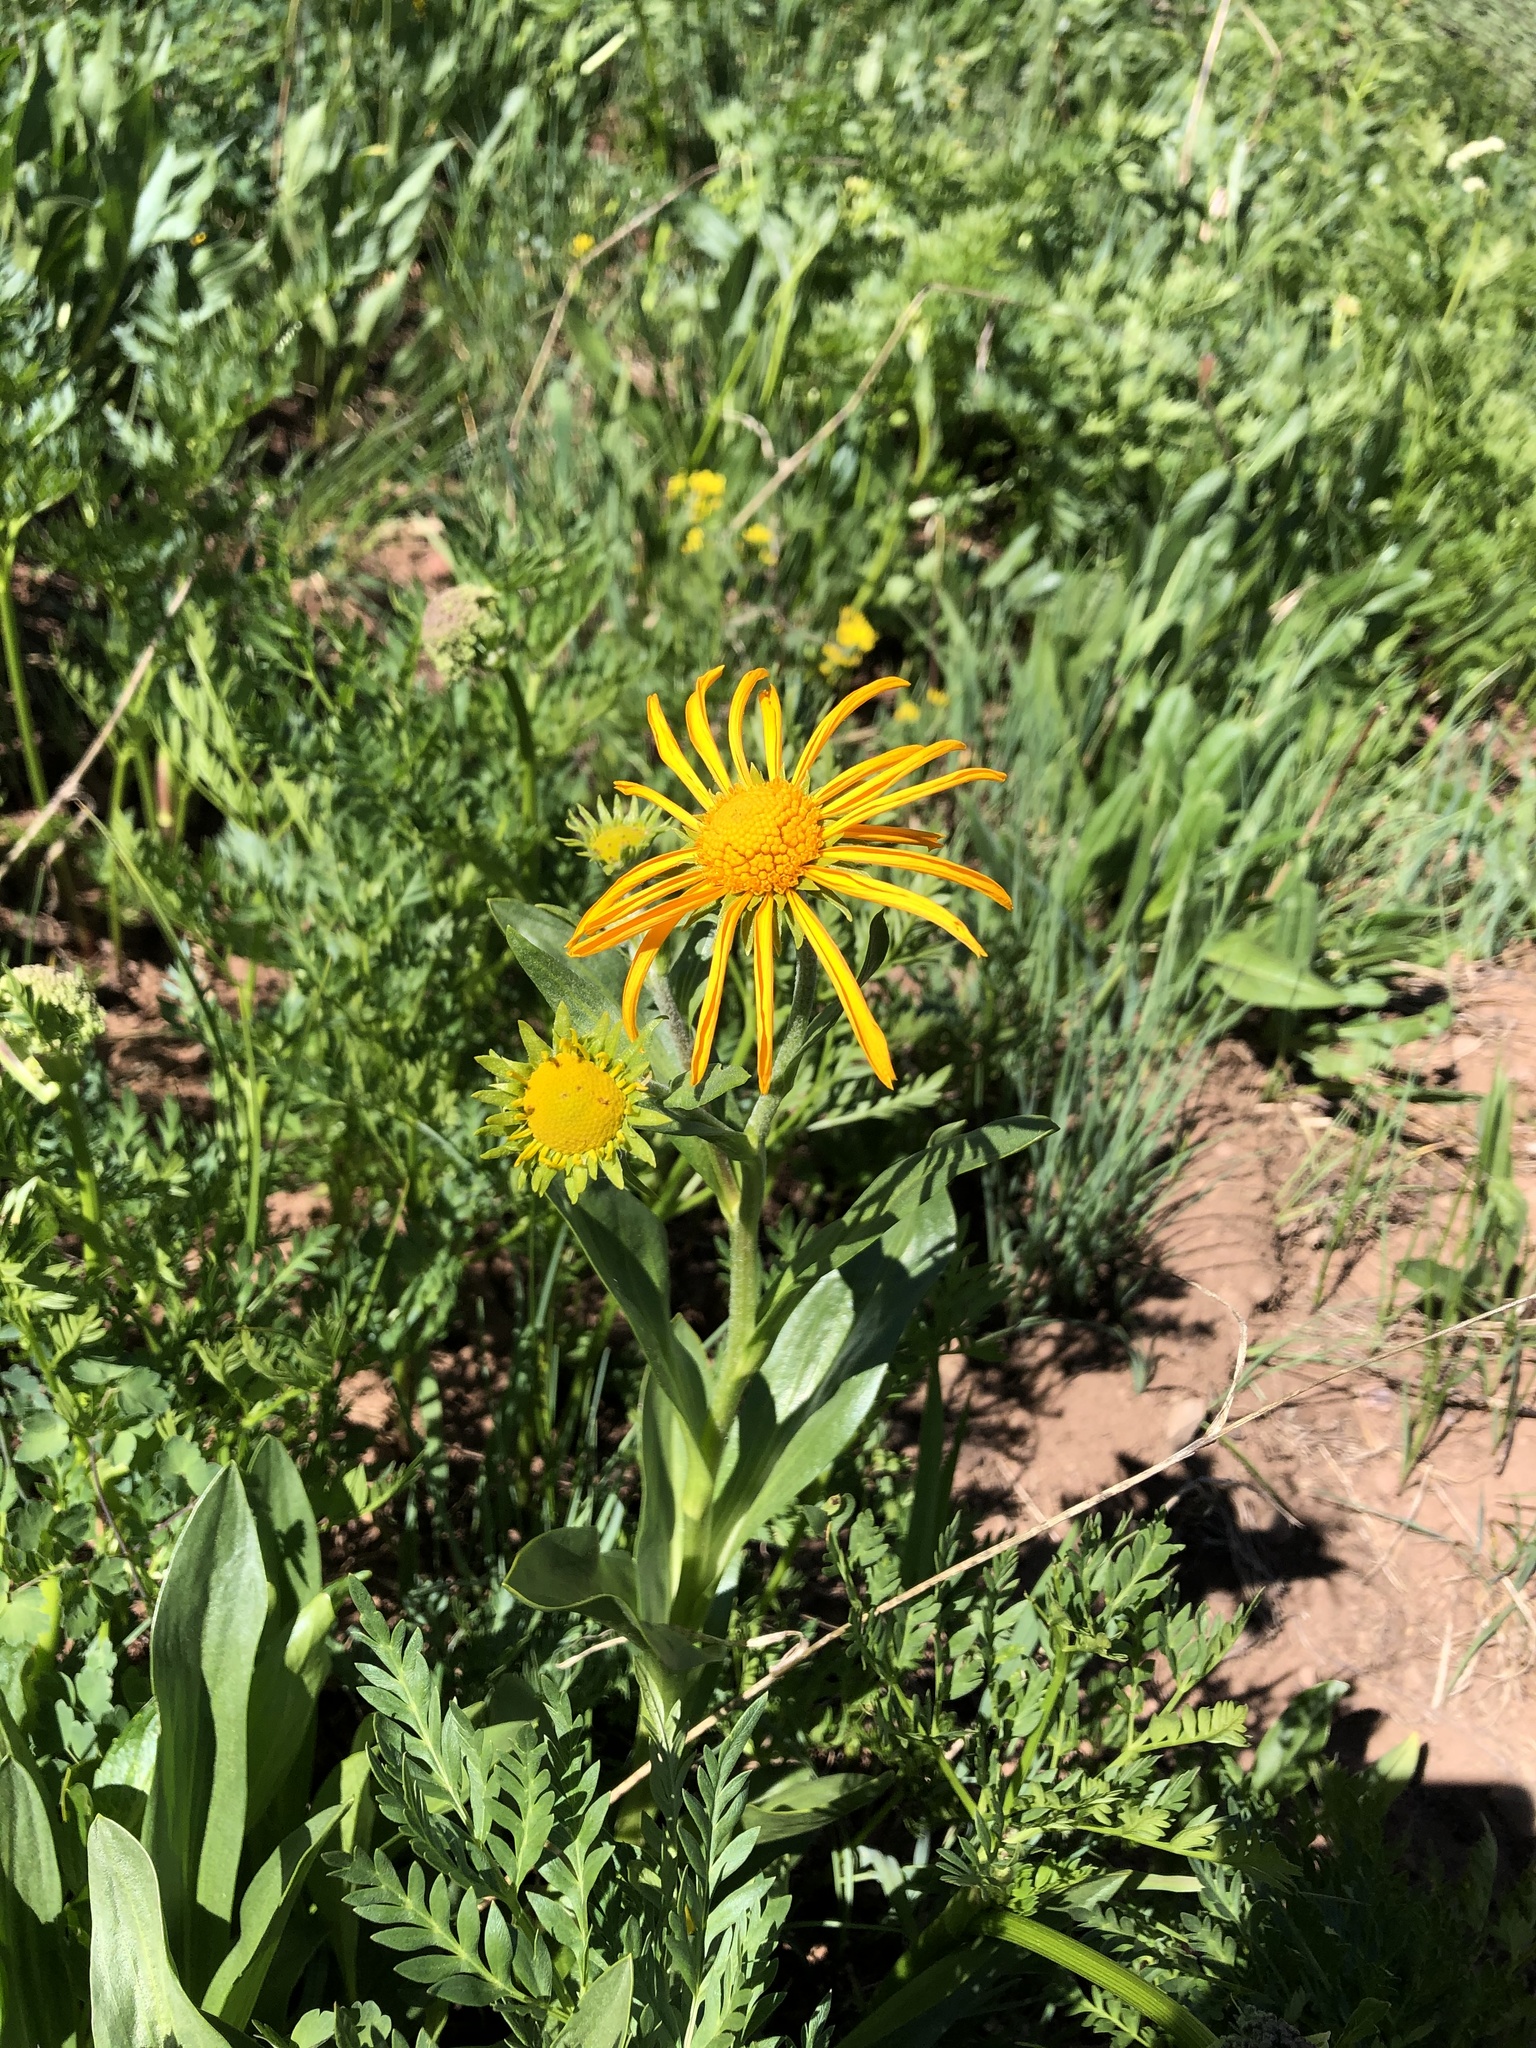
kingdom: Plantae
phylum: Tracheophyta
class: Magnoliopsida
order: Asterales
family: Asteraceae
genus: Hymenoxys
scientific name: Hymenoxys hoopesii
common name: Orange-sneezeweed
